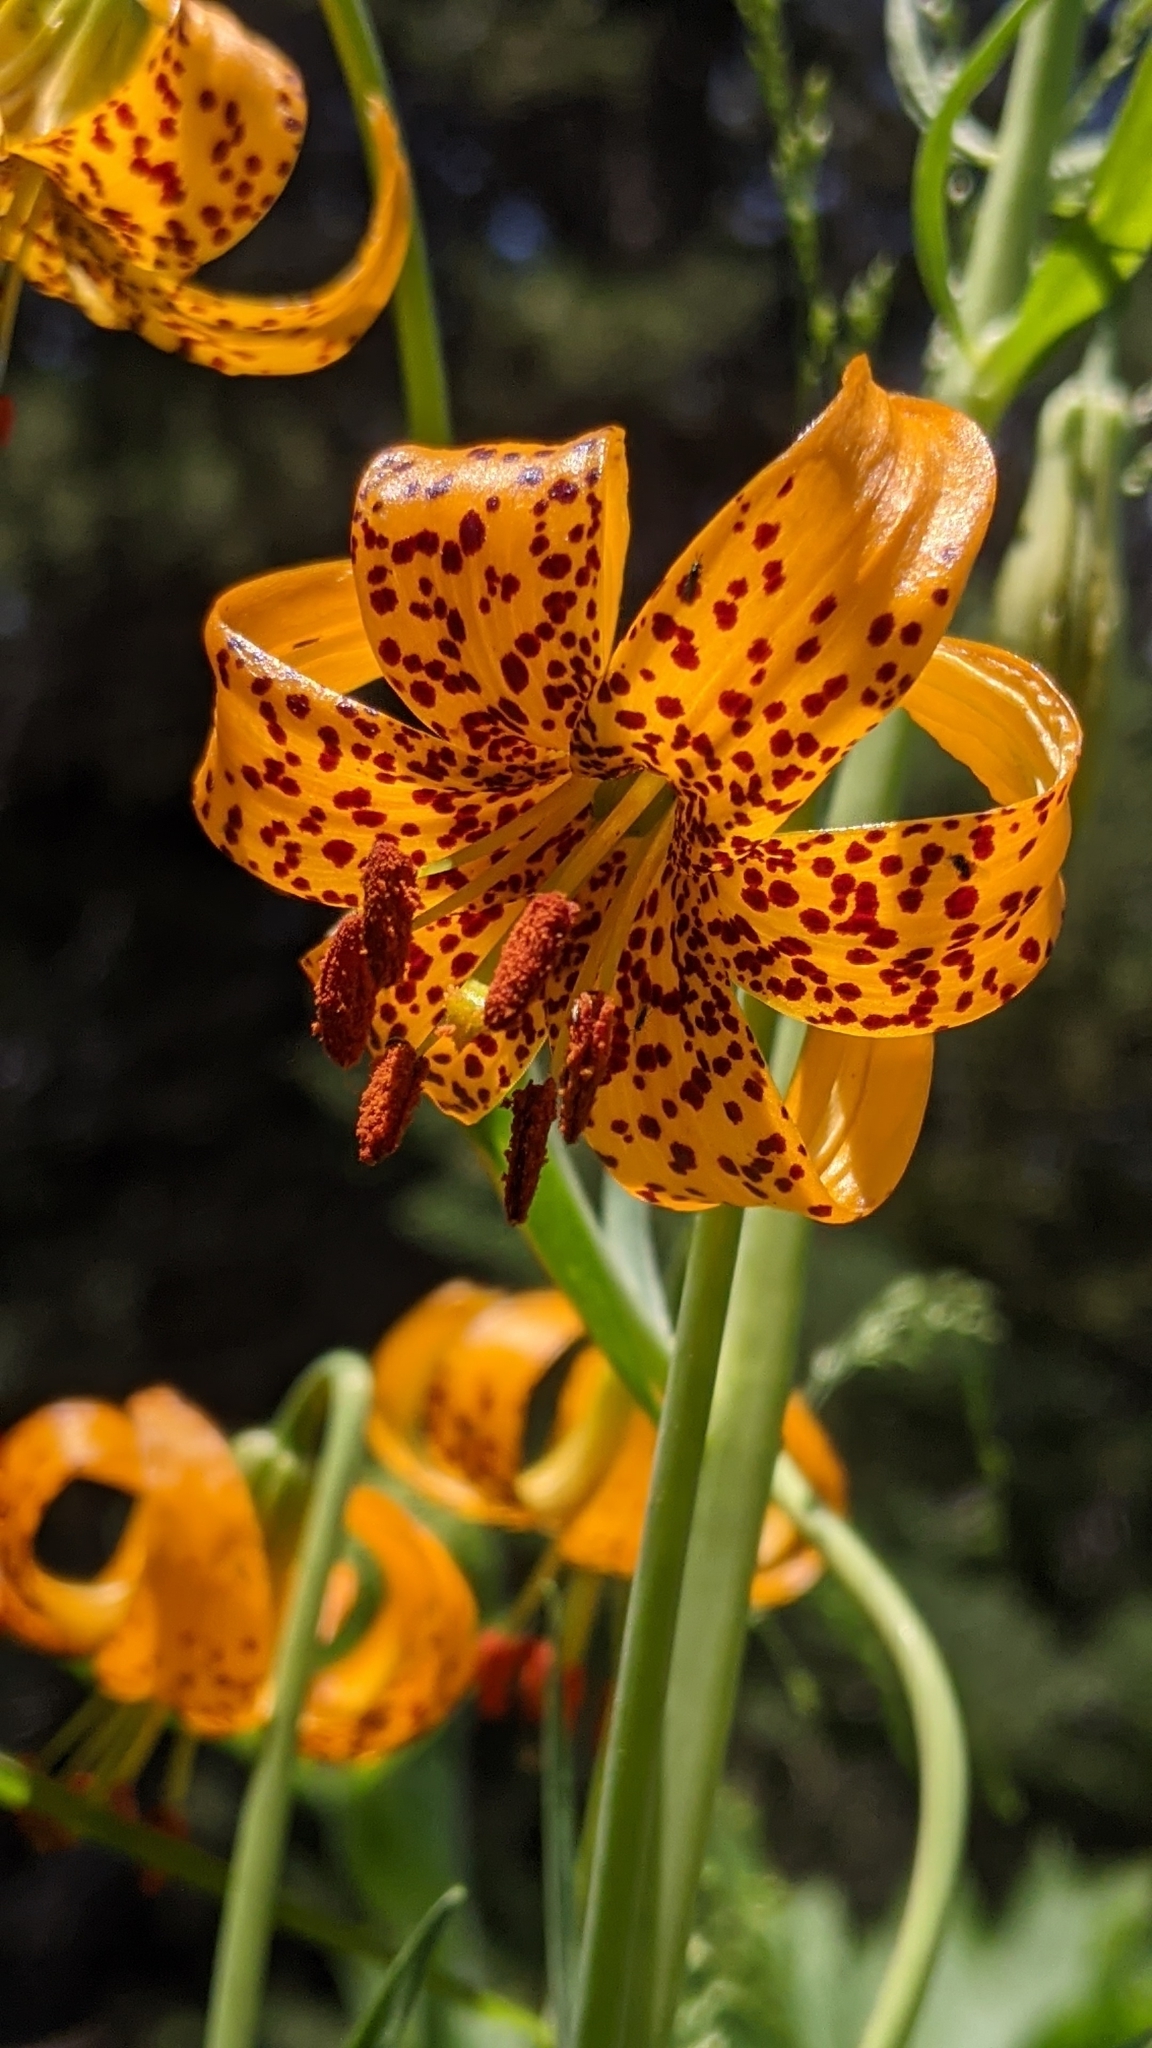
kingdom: Plantae
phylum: Tracheophyta
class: Liliopsida
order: Liliales
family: Liliaceae
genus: Lilium
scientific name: Lilium kelleyanum
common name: Kelley's lily
